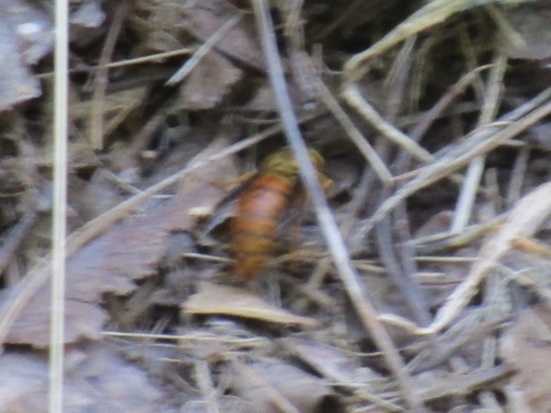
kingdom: Animalia
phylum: Arthropoda
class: Insecta
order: Hymenoptera
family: Vespidae
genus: Vespula
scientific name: Vespula squamosa
